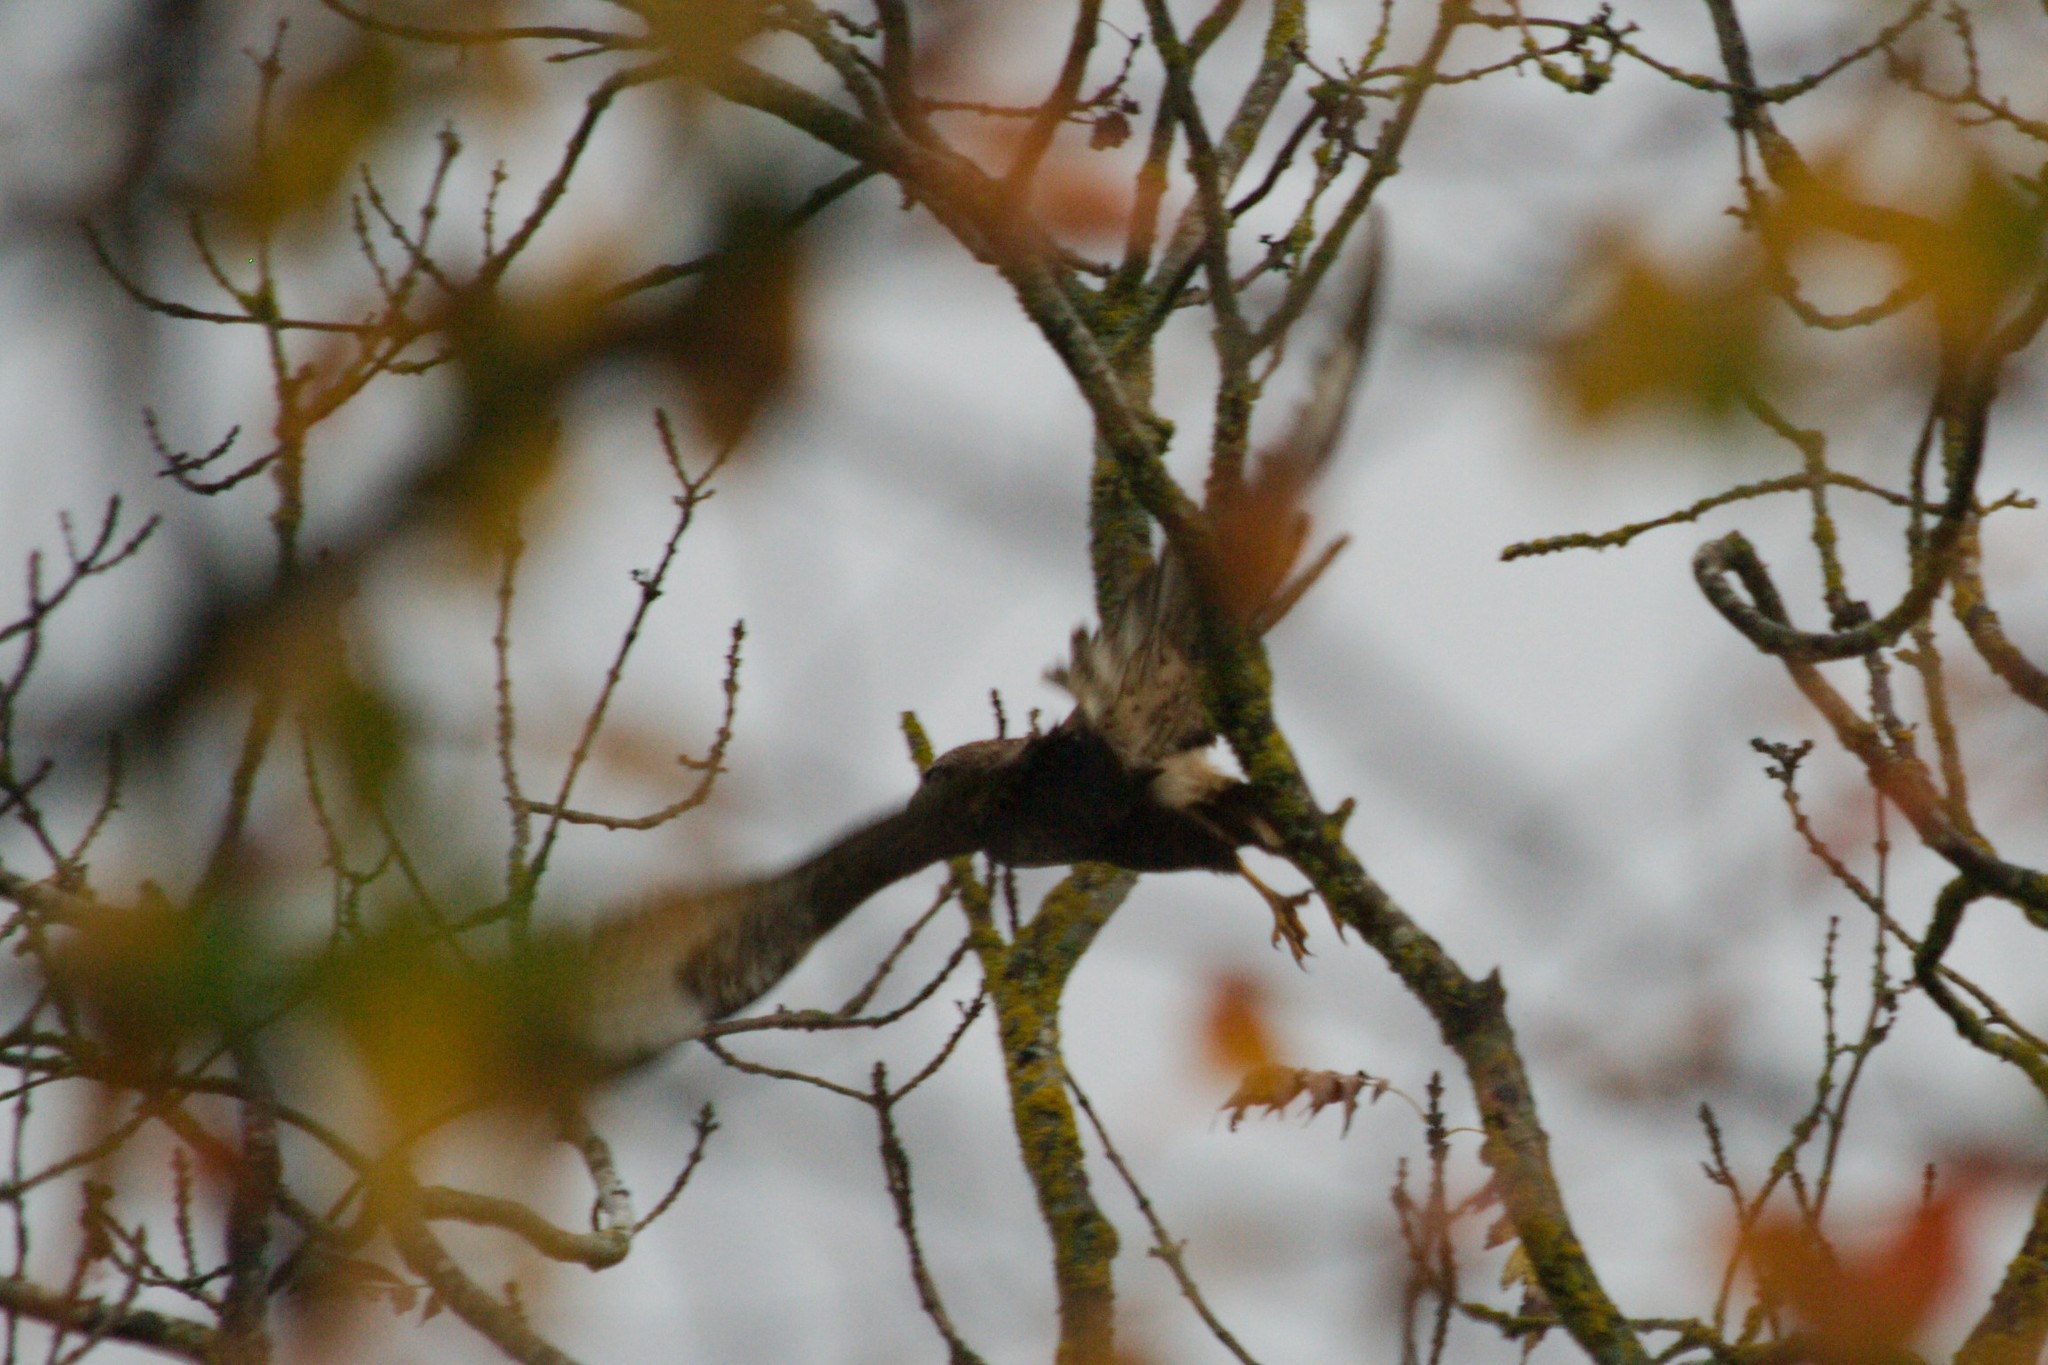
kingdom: Animalia
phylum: Chordata
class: Aves
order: Accipitriformes
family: Accipitridae
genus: Buteo
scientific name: Buteo buteo
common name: Common buzzard
